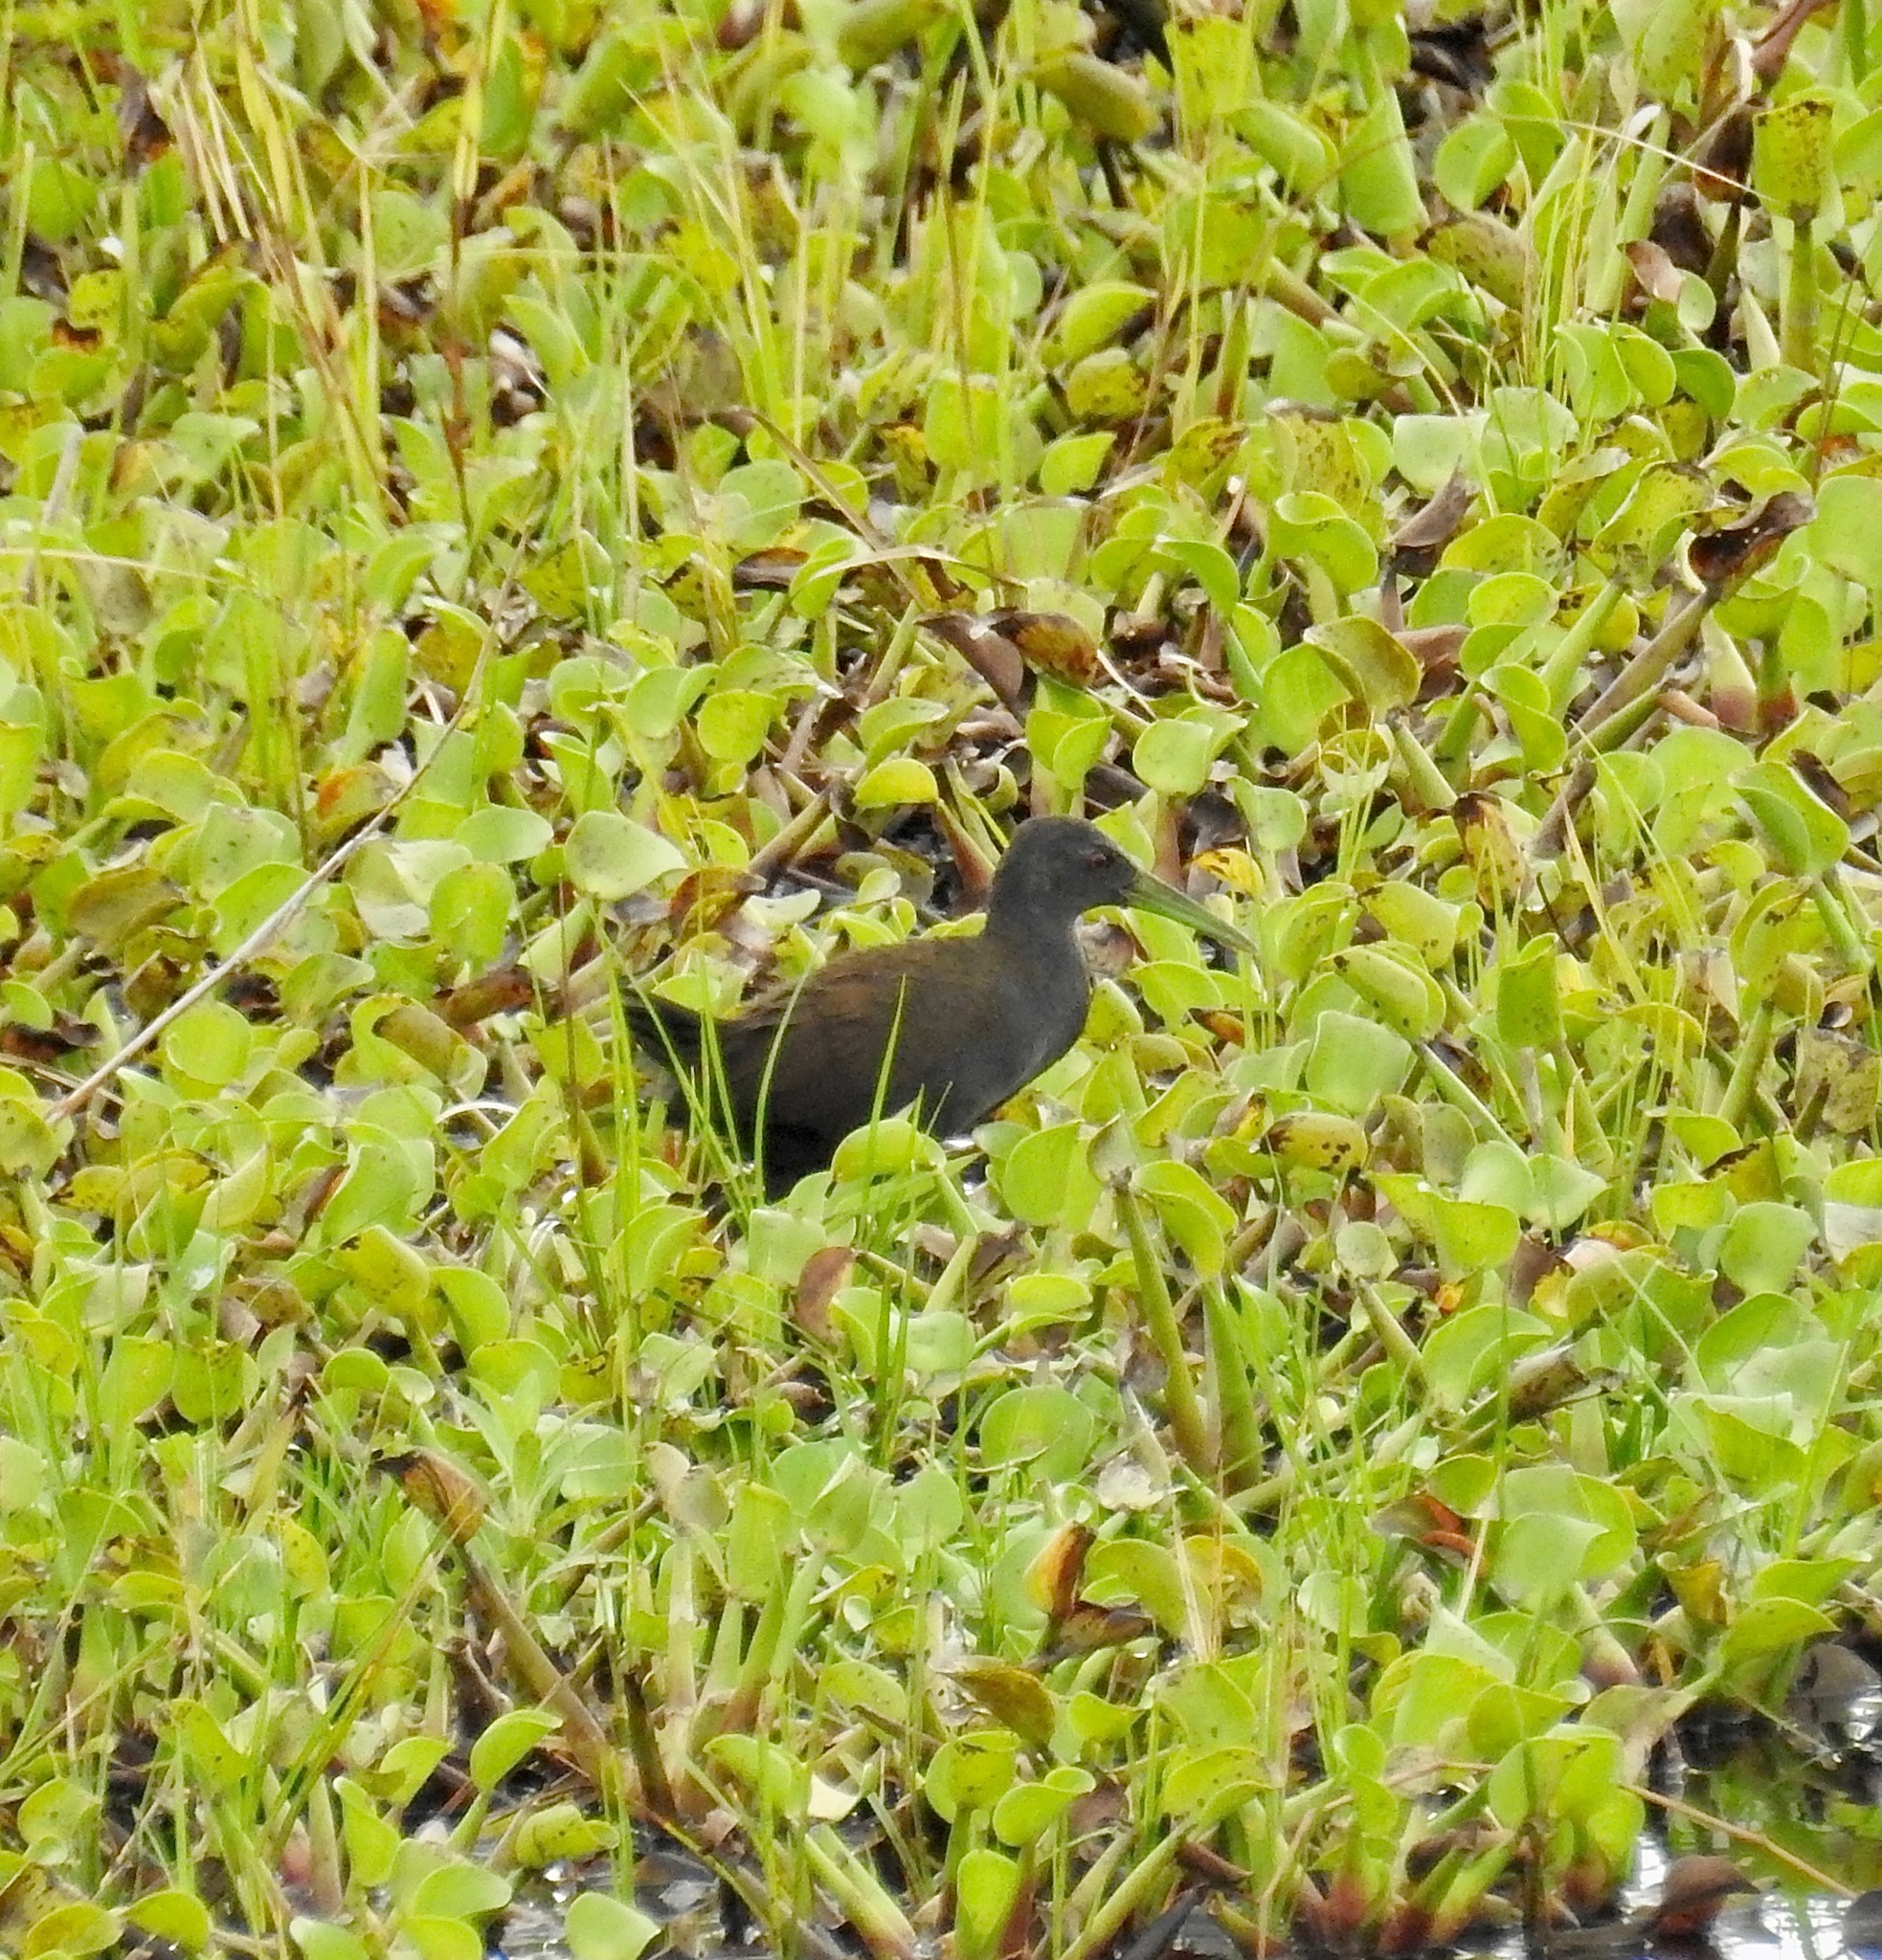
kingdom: Animalia
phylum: Chordata
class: Aves
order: Gruiformes
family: Rallidae
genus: Pardirallus
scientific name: Pardirallus nigricans
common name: Blackish rail
